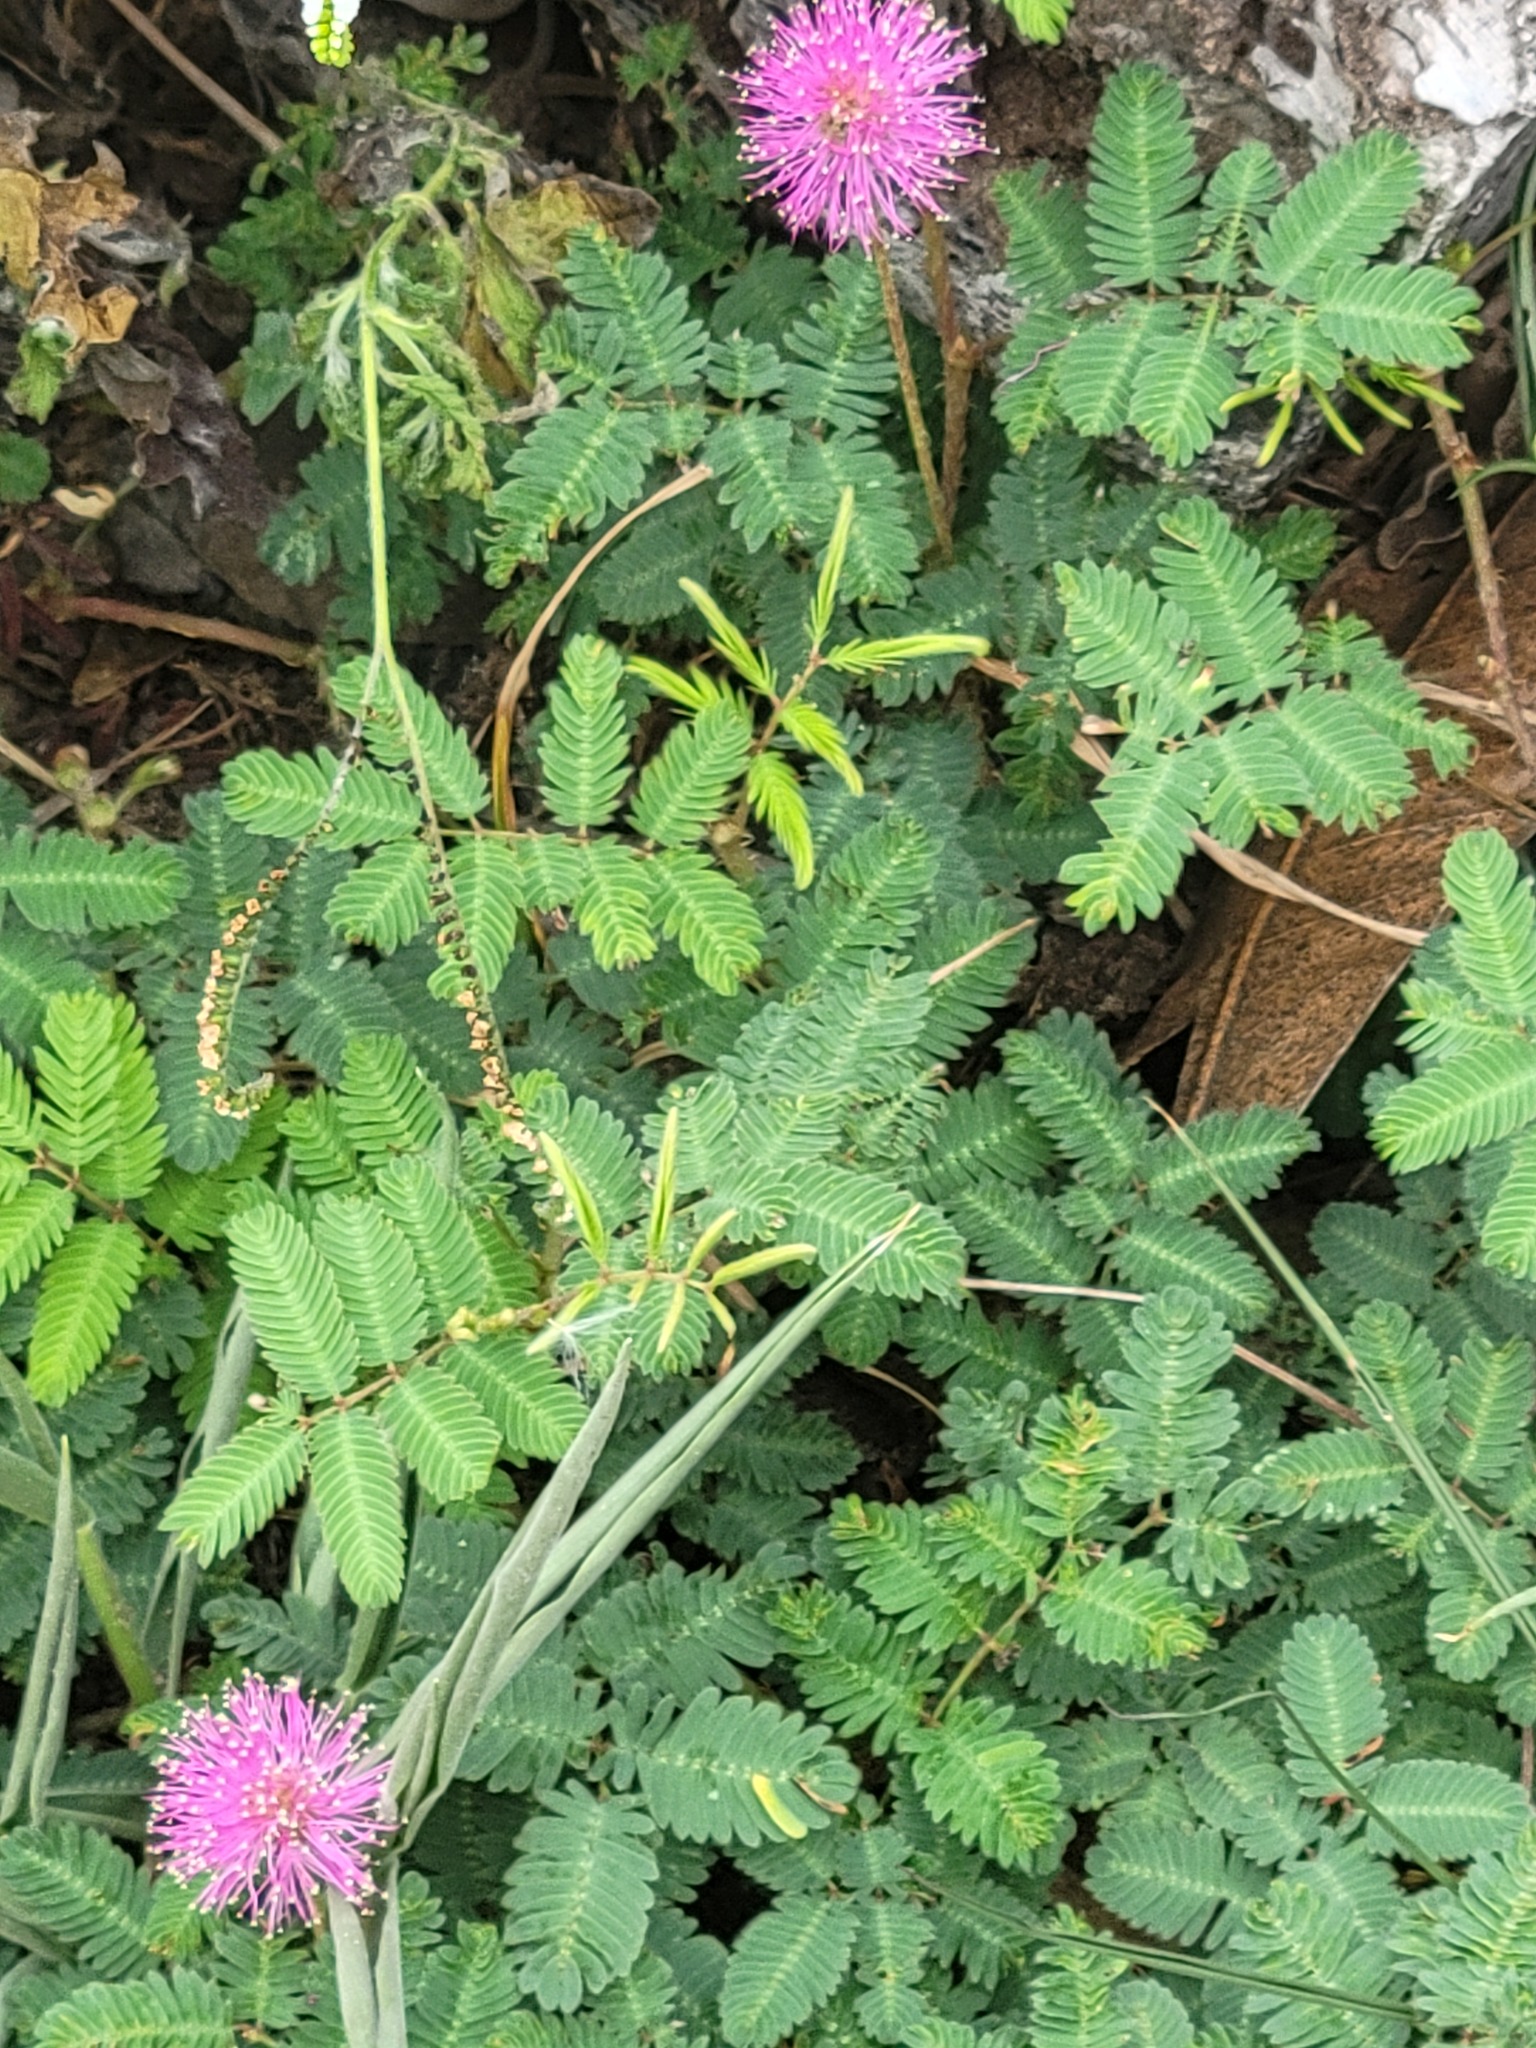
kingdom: Plantae
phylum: Tracheophyta
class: Magnoliopsida
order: Fabales
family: Fabaceae
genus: Mimosa
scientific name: Mimosa strigillosa
